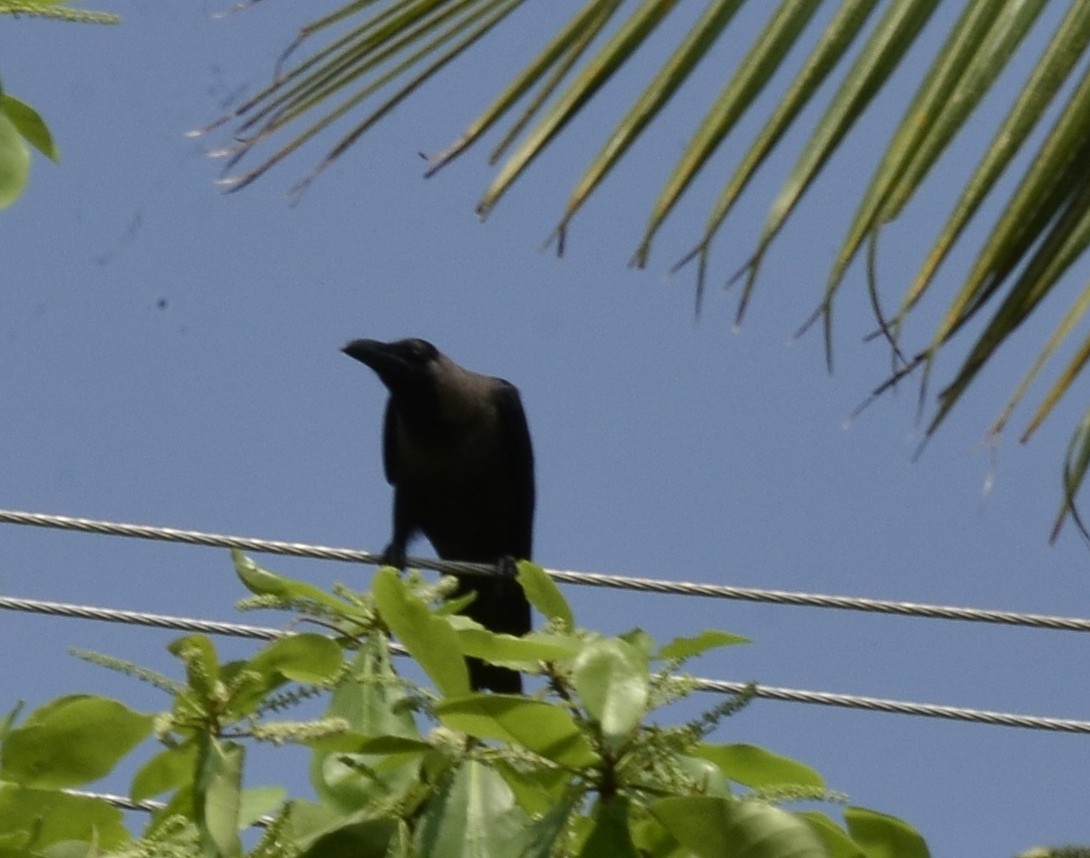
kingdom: Animalia
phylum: Chordata
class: Aves
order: Passeriformes
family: Corvidae
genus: Corvus
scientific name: Corvus splendens
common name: House crow
